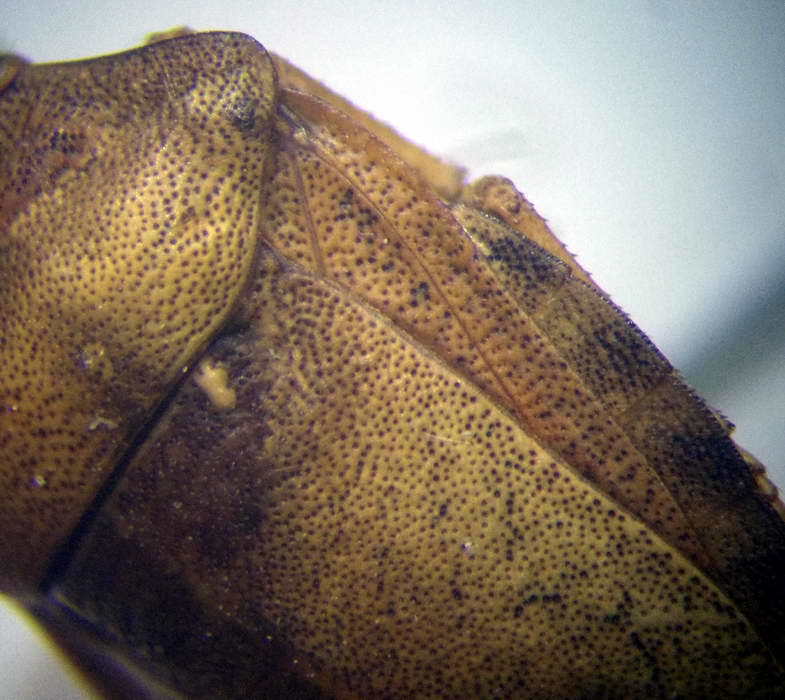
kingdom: Animalia
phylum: Arthropoda
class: Insecta
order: Hemiptera
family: Scutelleridae
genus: Eurygaster
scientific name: Eurygaster testudinaria
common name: Tortoise bug
